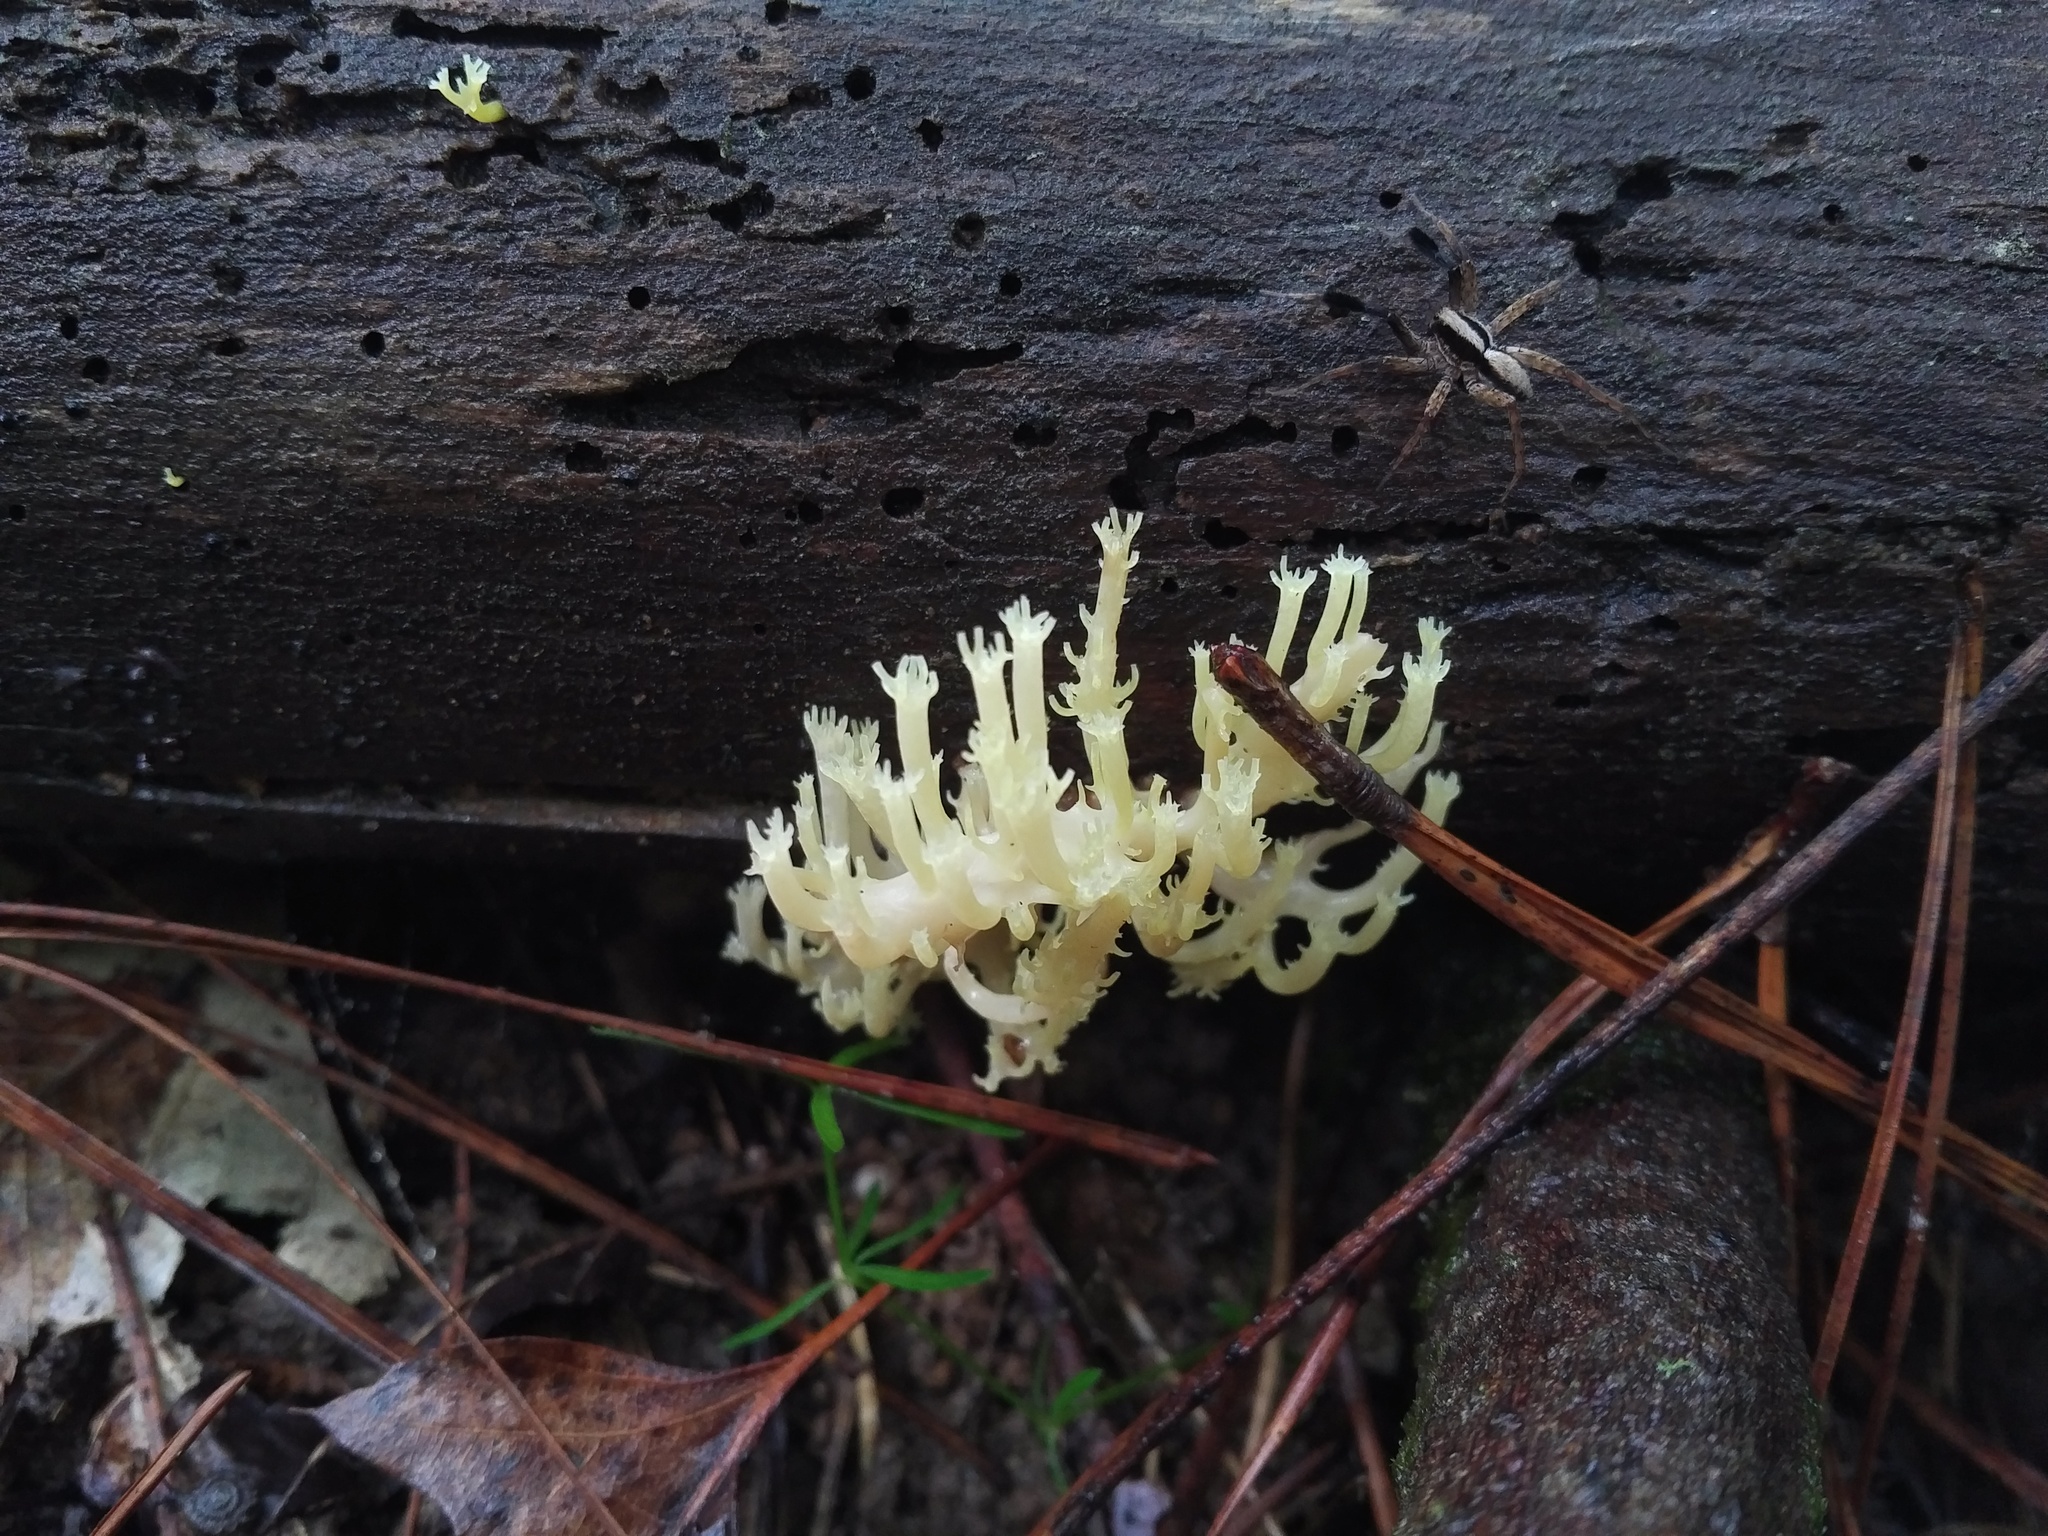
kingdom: Fungi
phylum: Basidiomycota
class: Agaricomycetes
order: Russulales
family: Auriscalpiaceae
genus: Artomyces
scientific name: Artomyces pyxidatus
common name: Crown-tipped coral fungus
